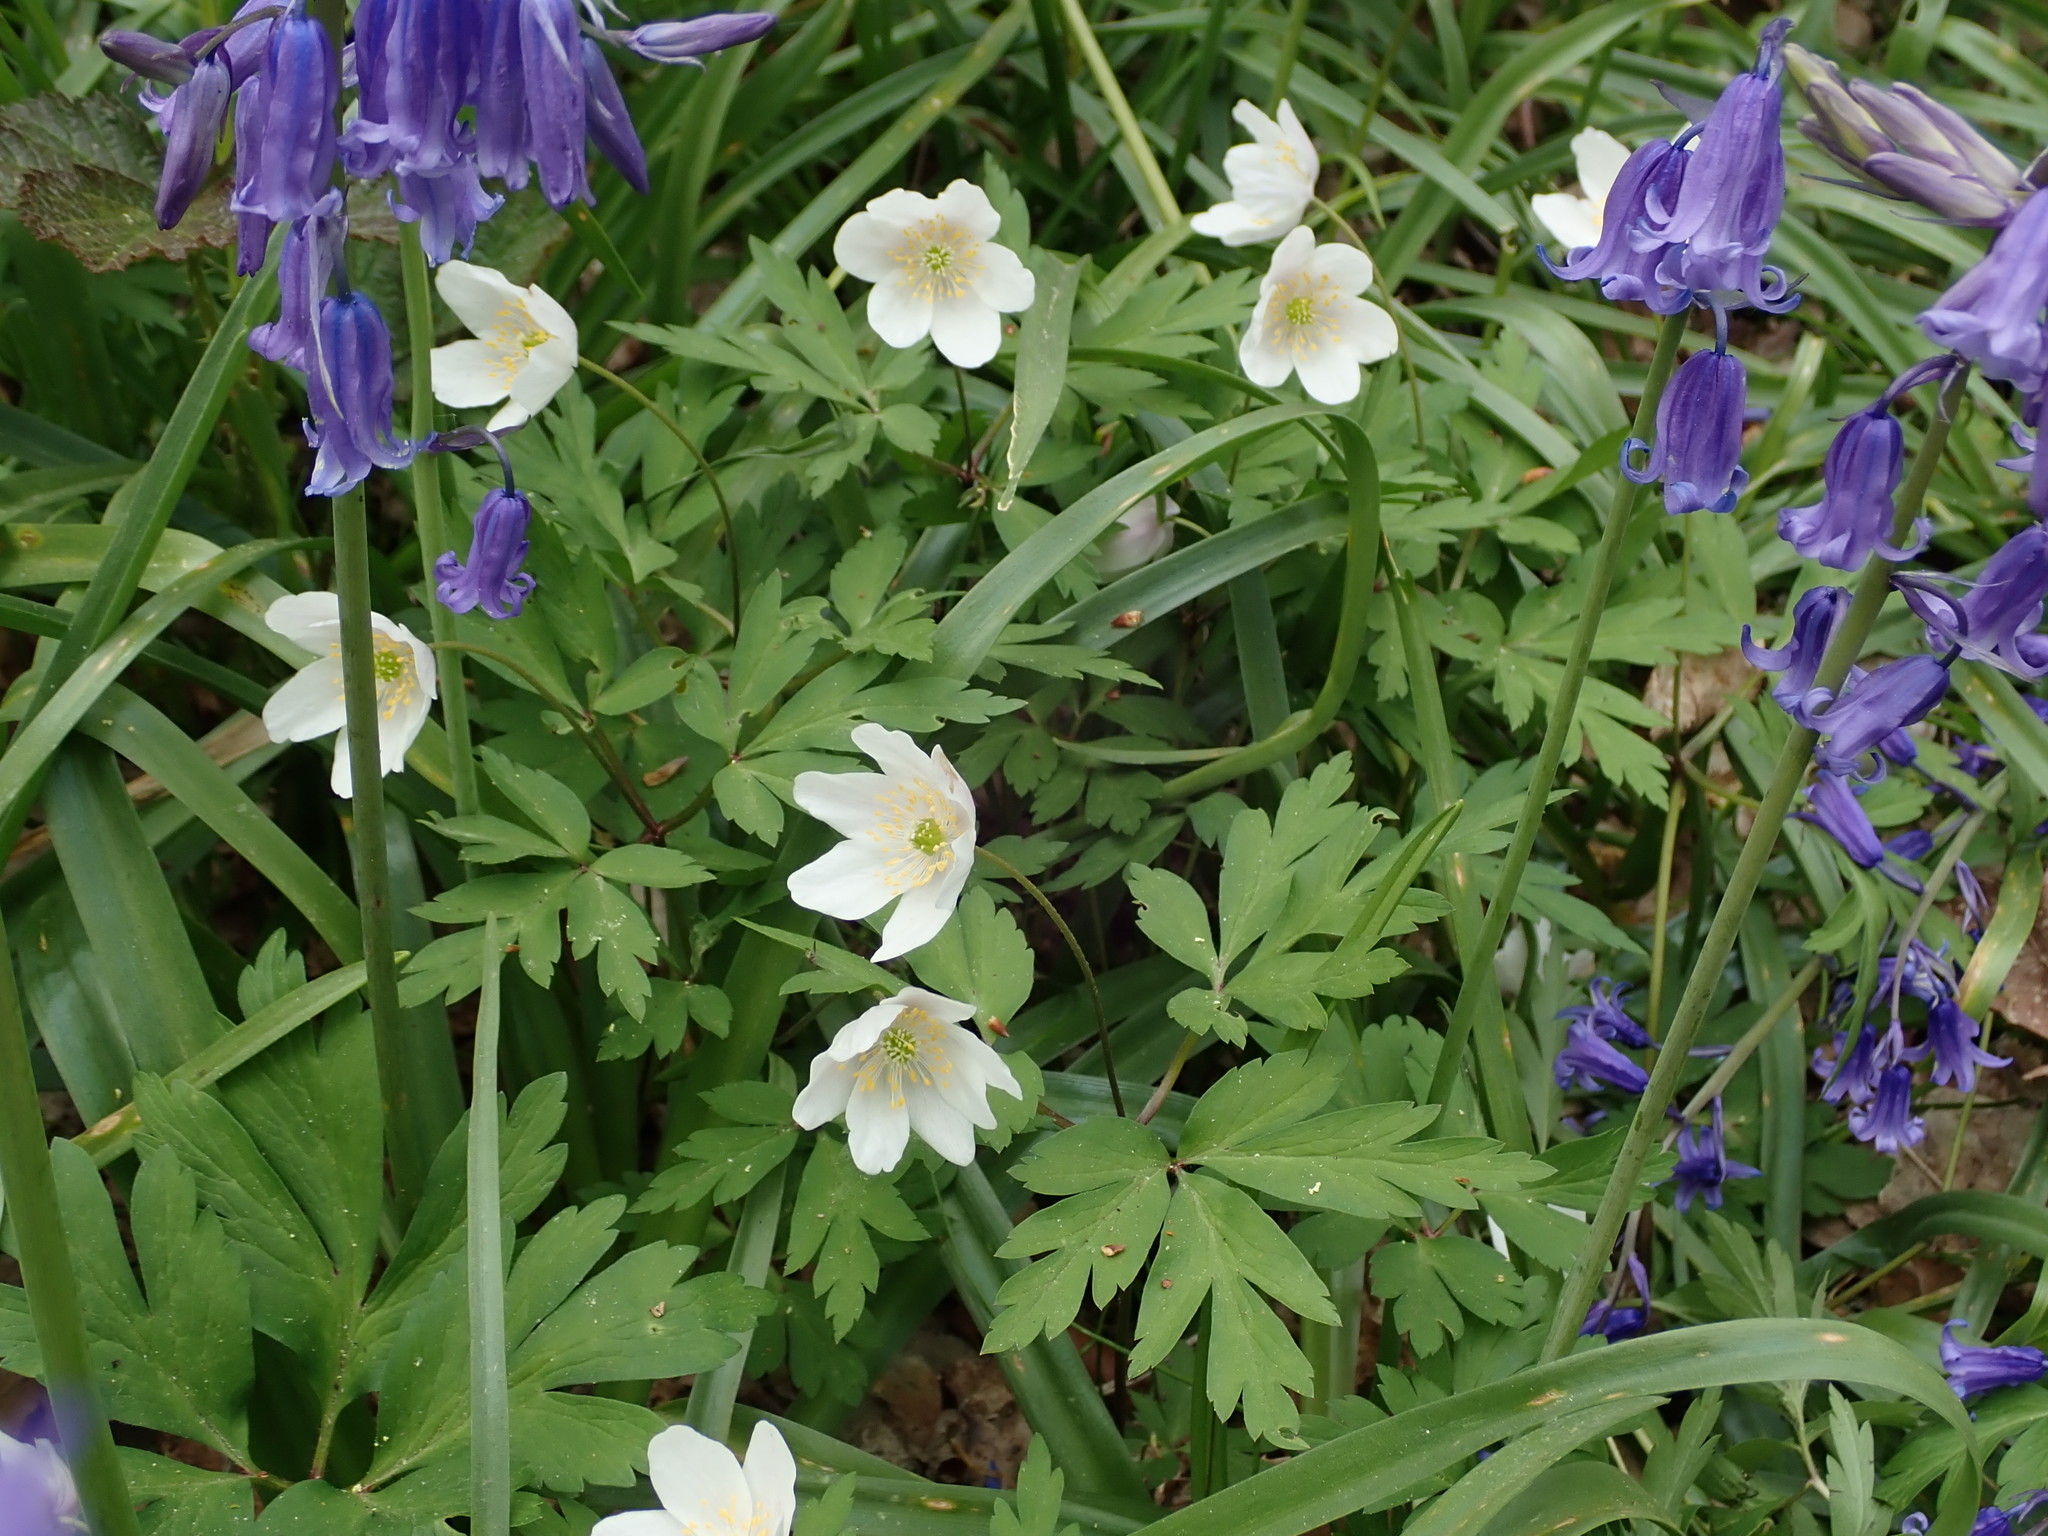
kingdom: Plantae
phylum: Tracheophyta
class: Magnoliopsida
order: Ranunculales
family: Ranunculaceae
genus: Anemone
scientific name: Anemone nemorosa
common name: Wood anemone
